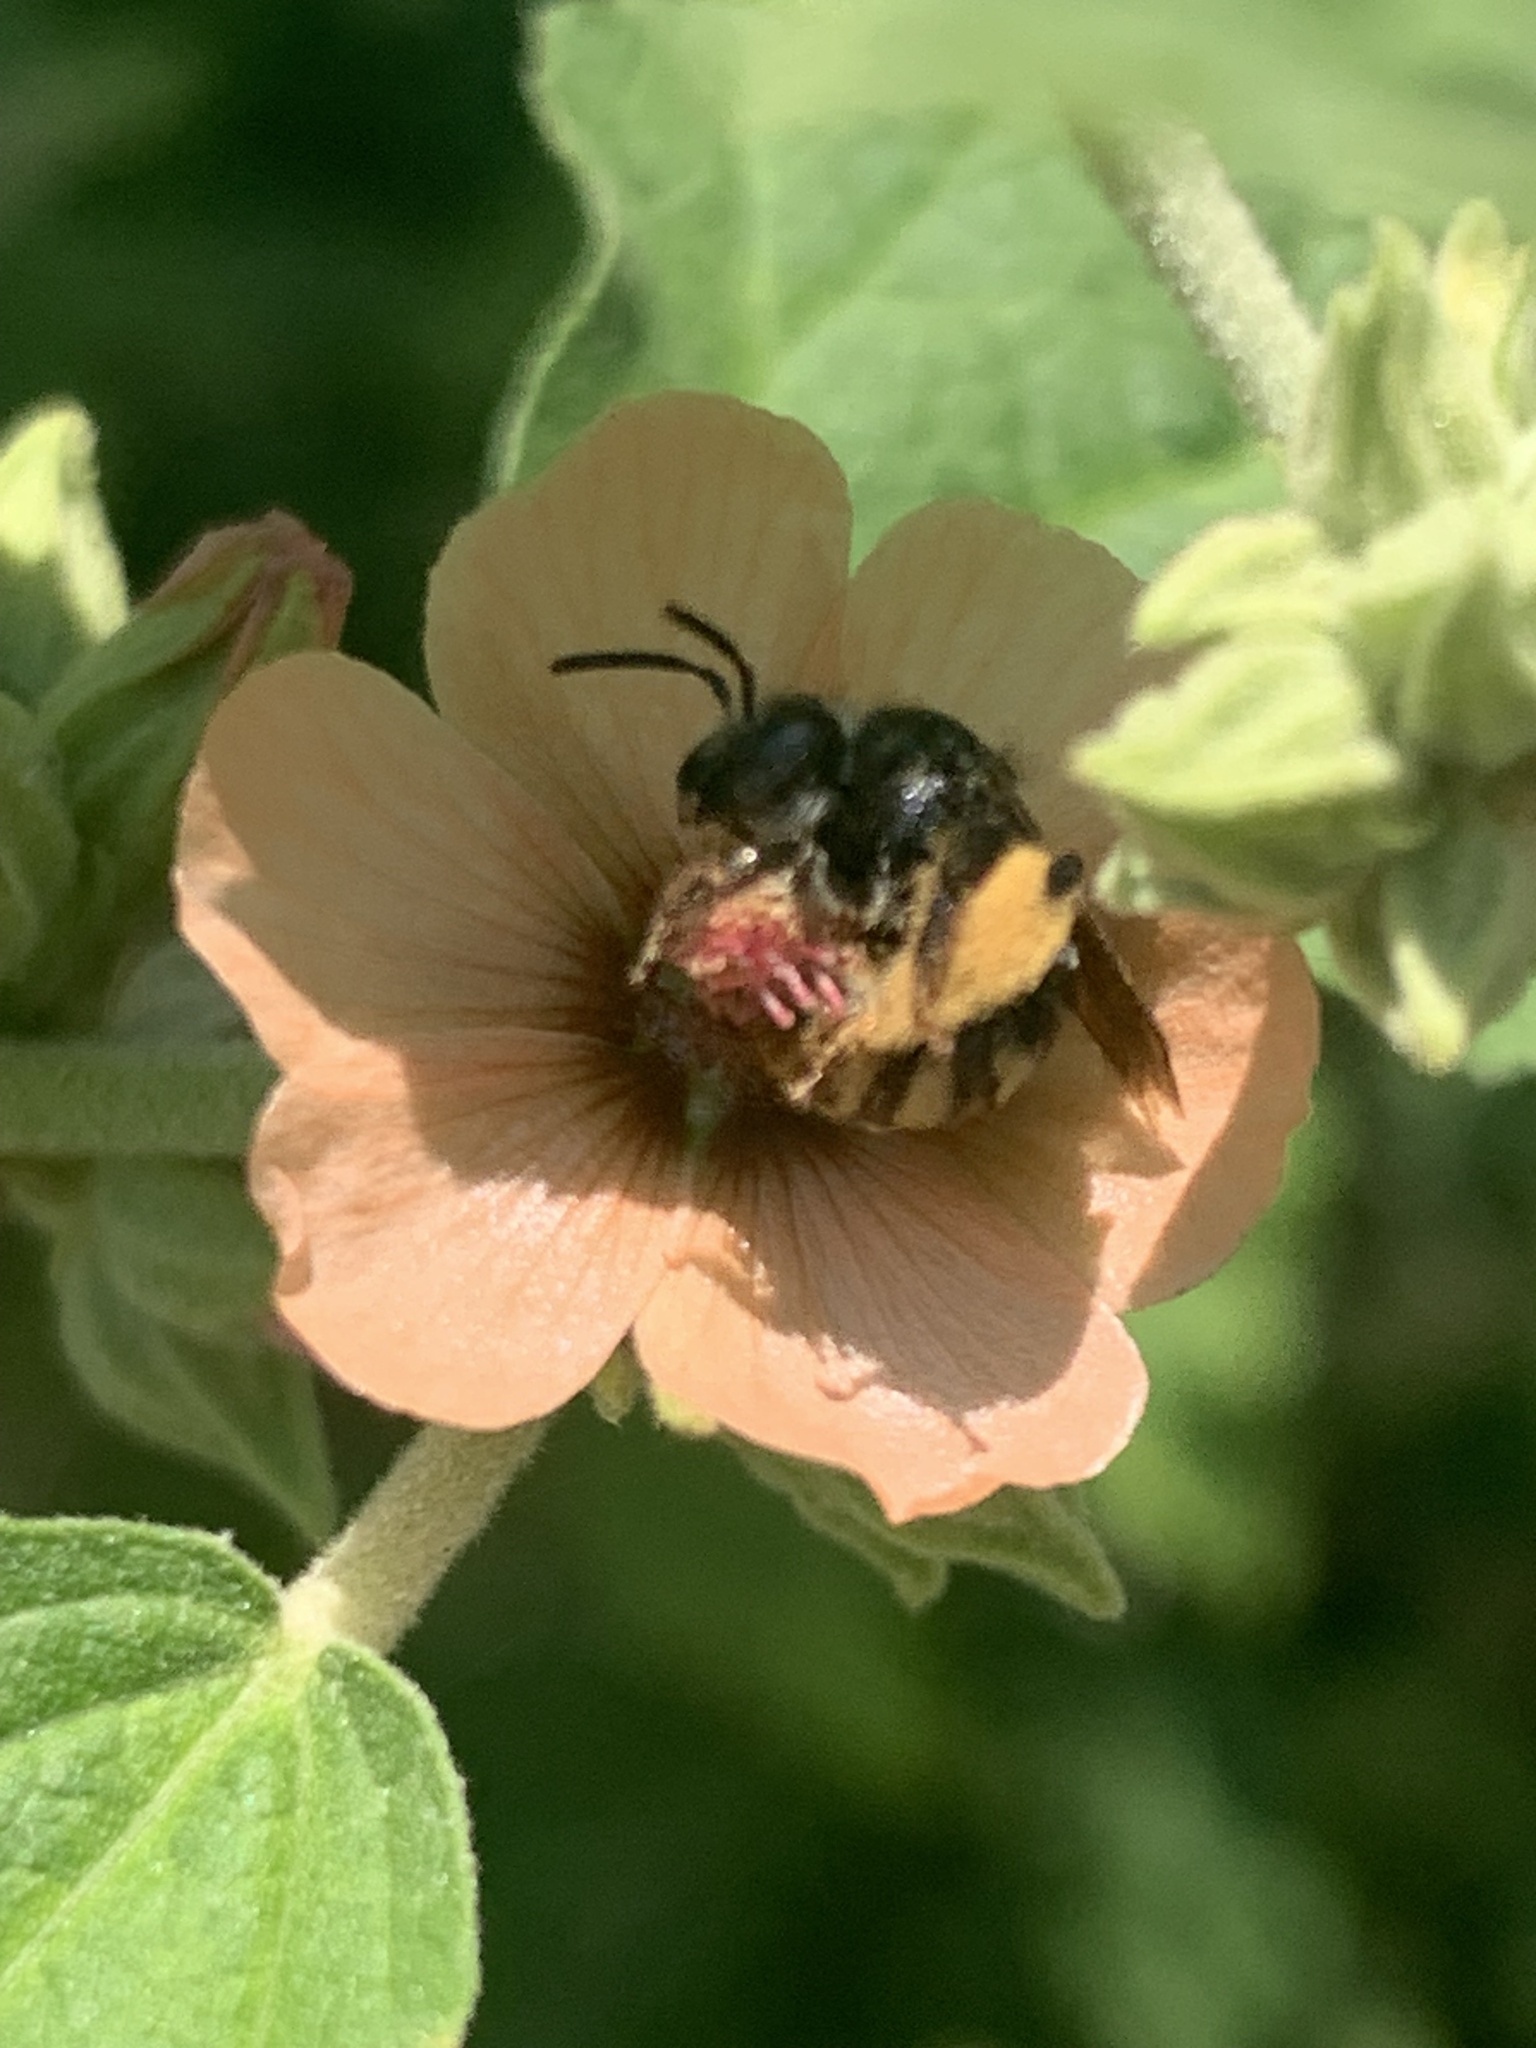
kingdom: Plantae
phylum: Tracheophyta
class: Magnoliopsida
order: Malvales
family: Malvaceae
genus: Sphaeralcea
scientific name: Sphaeralcea bonariensis
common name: Latin globemallow
